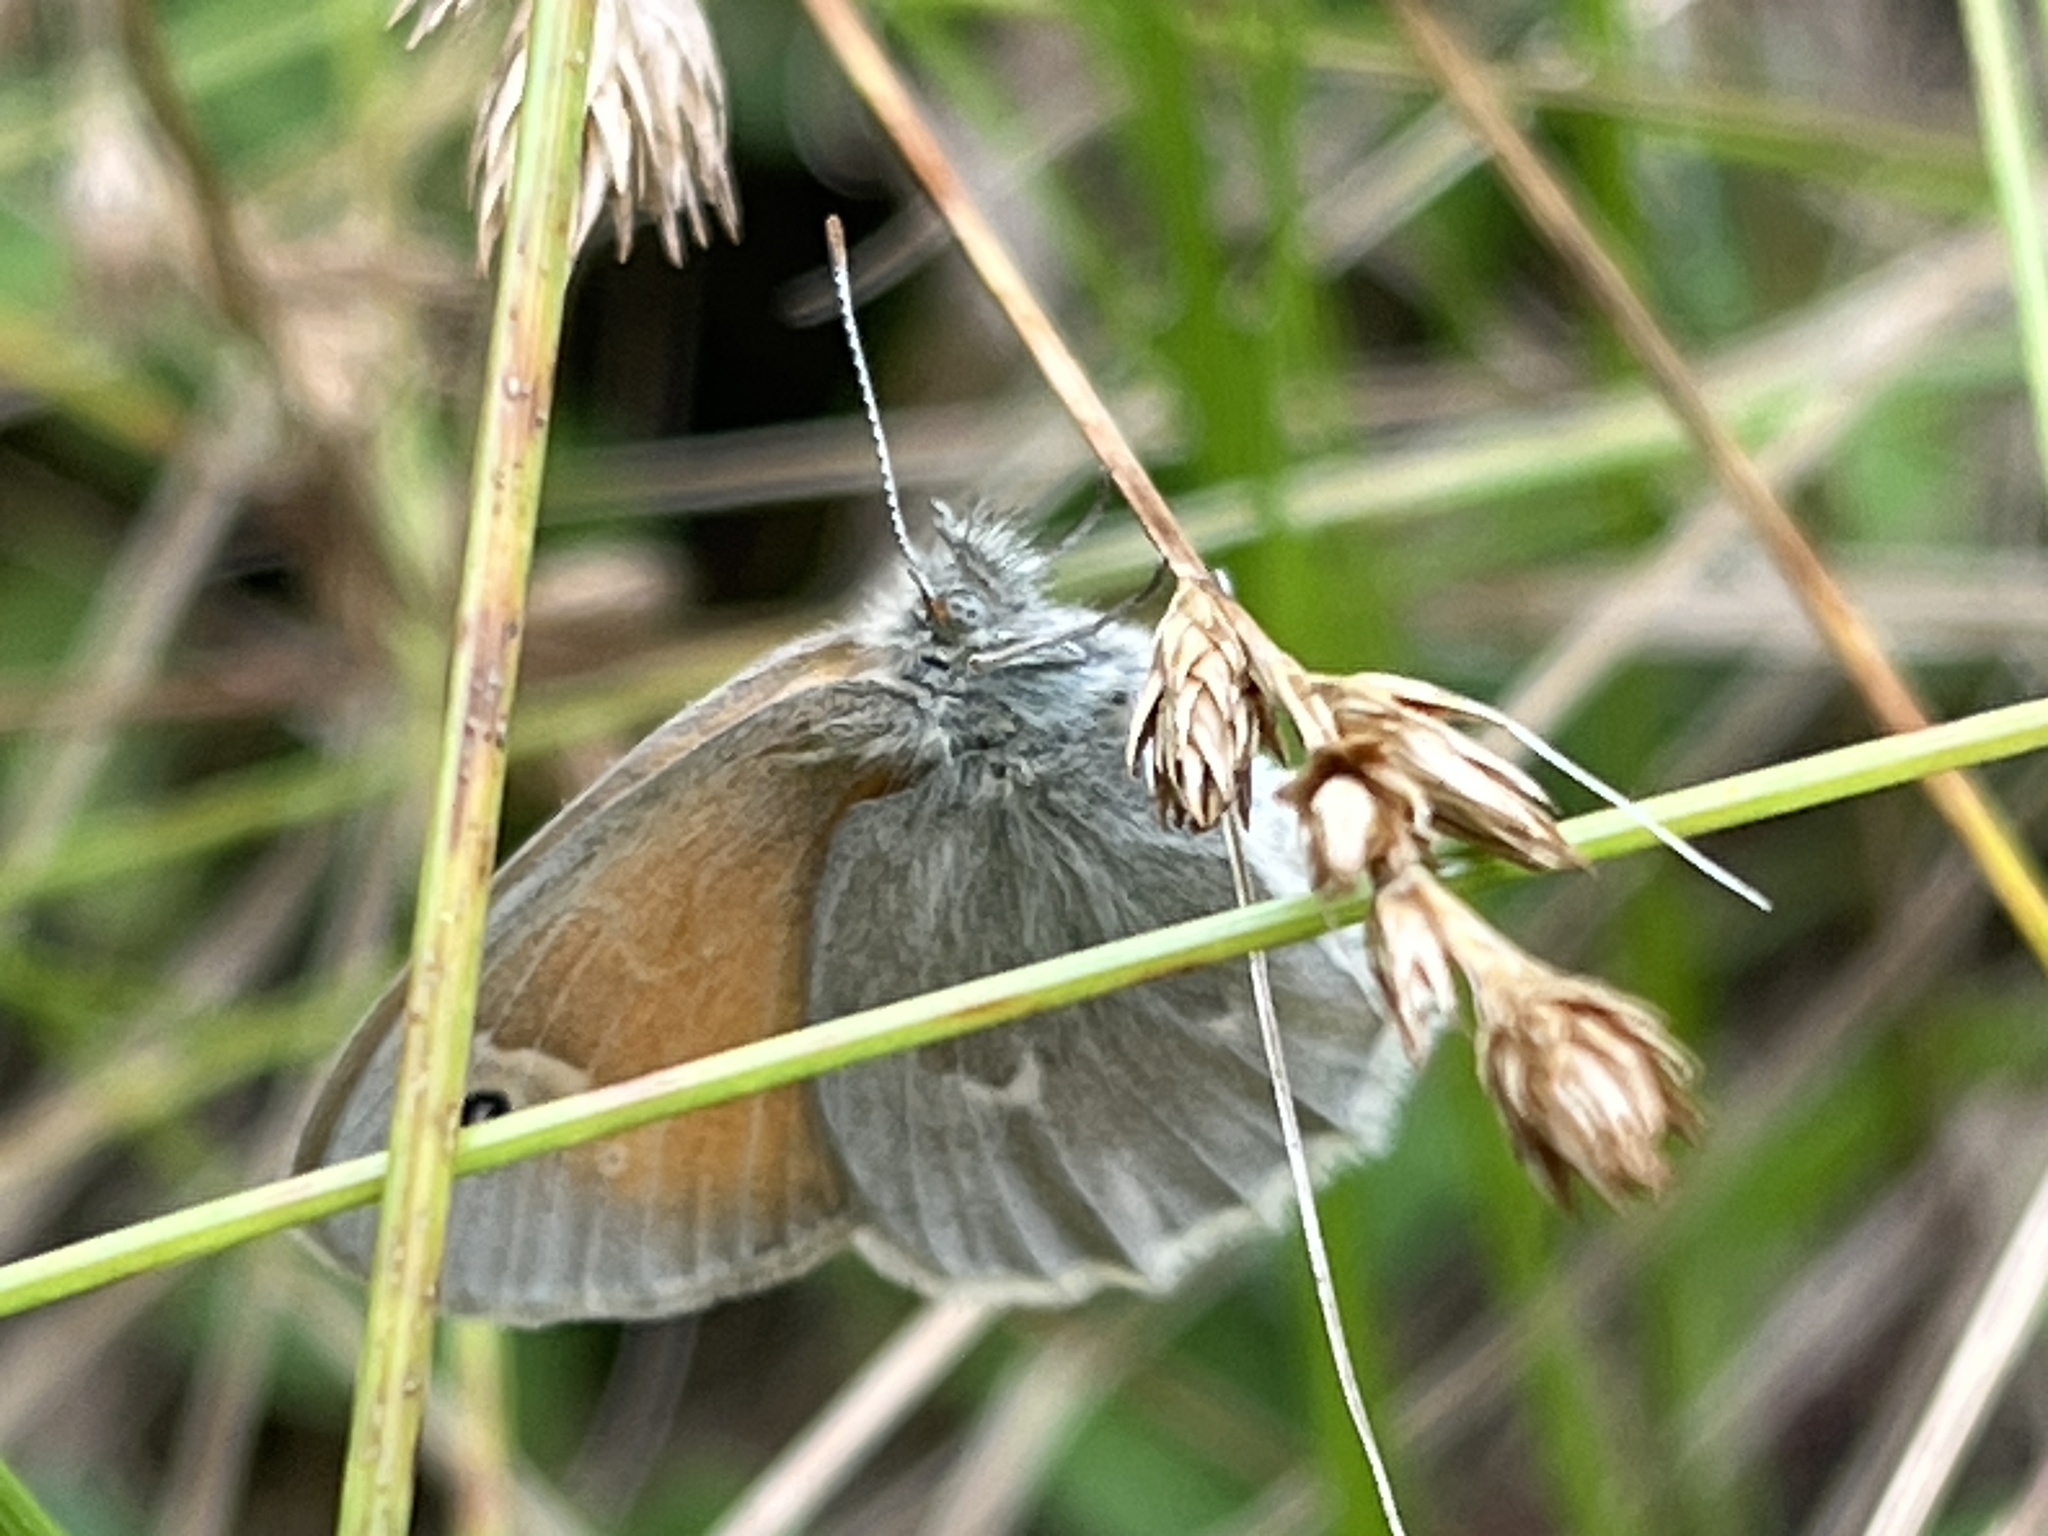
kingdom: Animalia
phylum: Arthropoda
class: Insecta
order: Lepidoptera
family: Nymphalidae
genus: Coenonympha
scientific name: Coenonympha california
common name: Common ringlet
